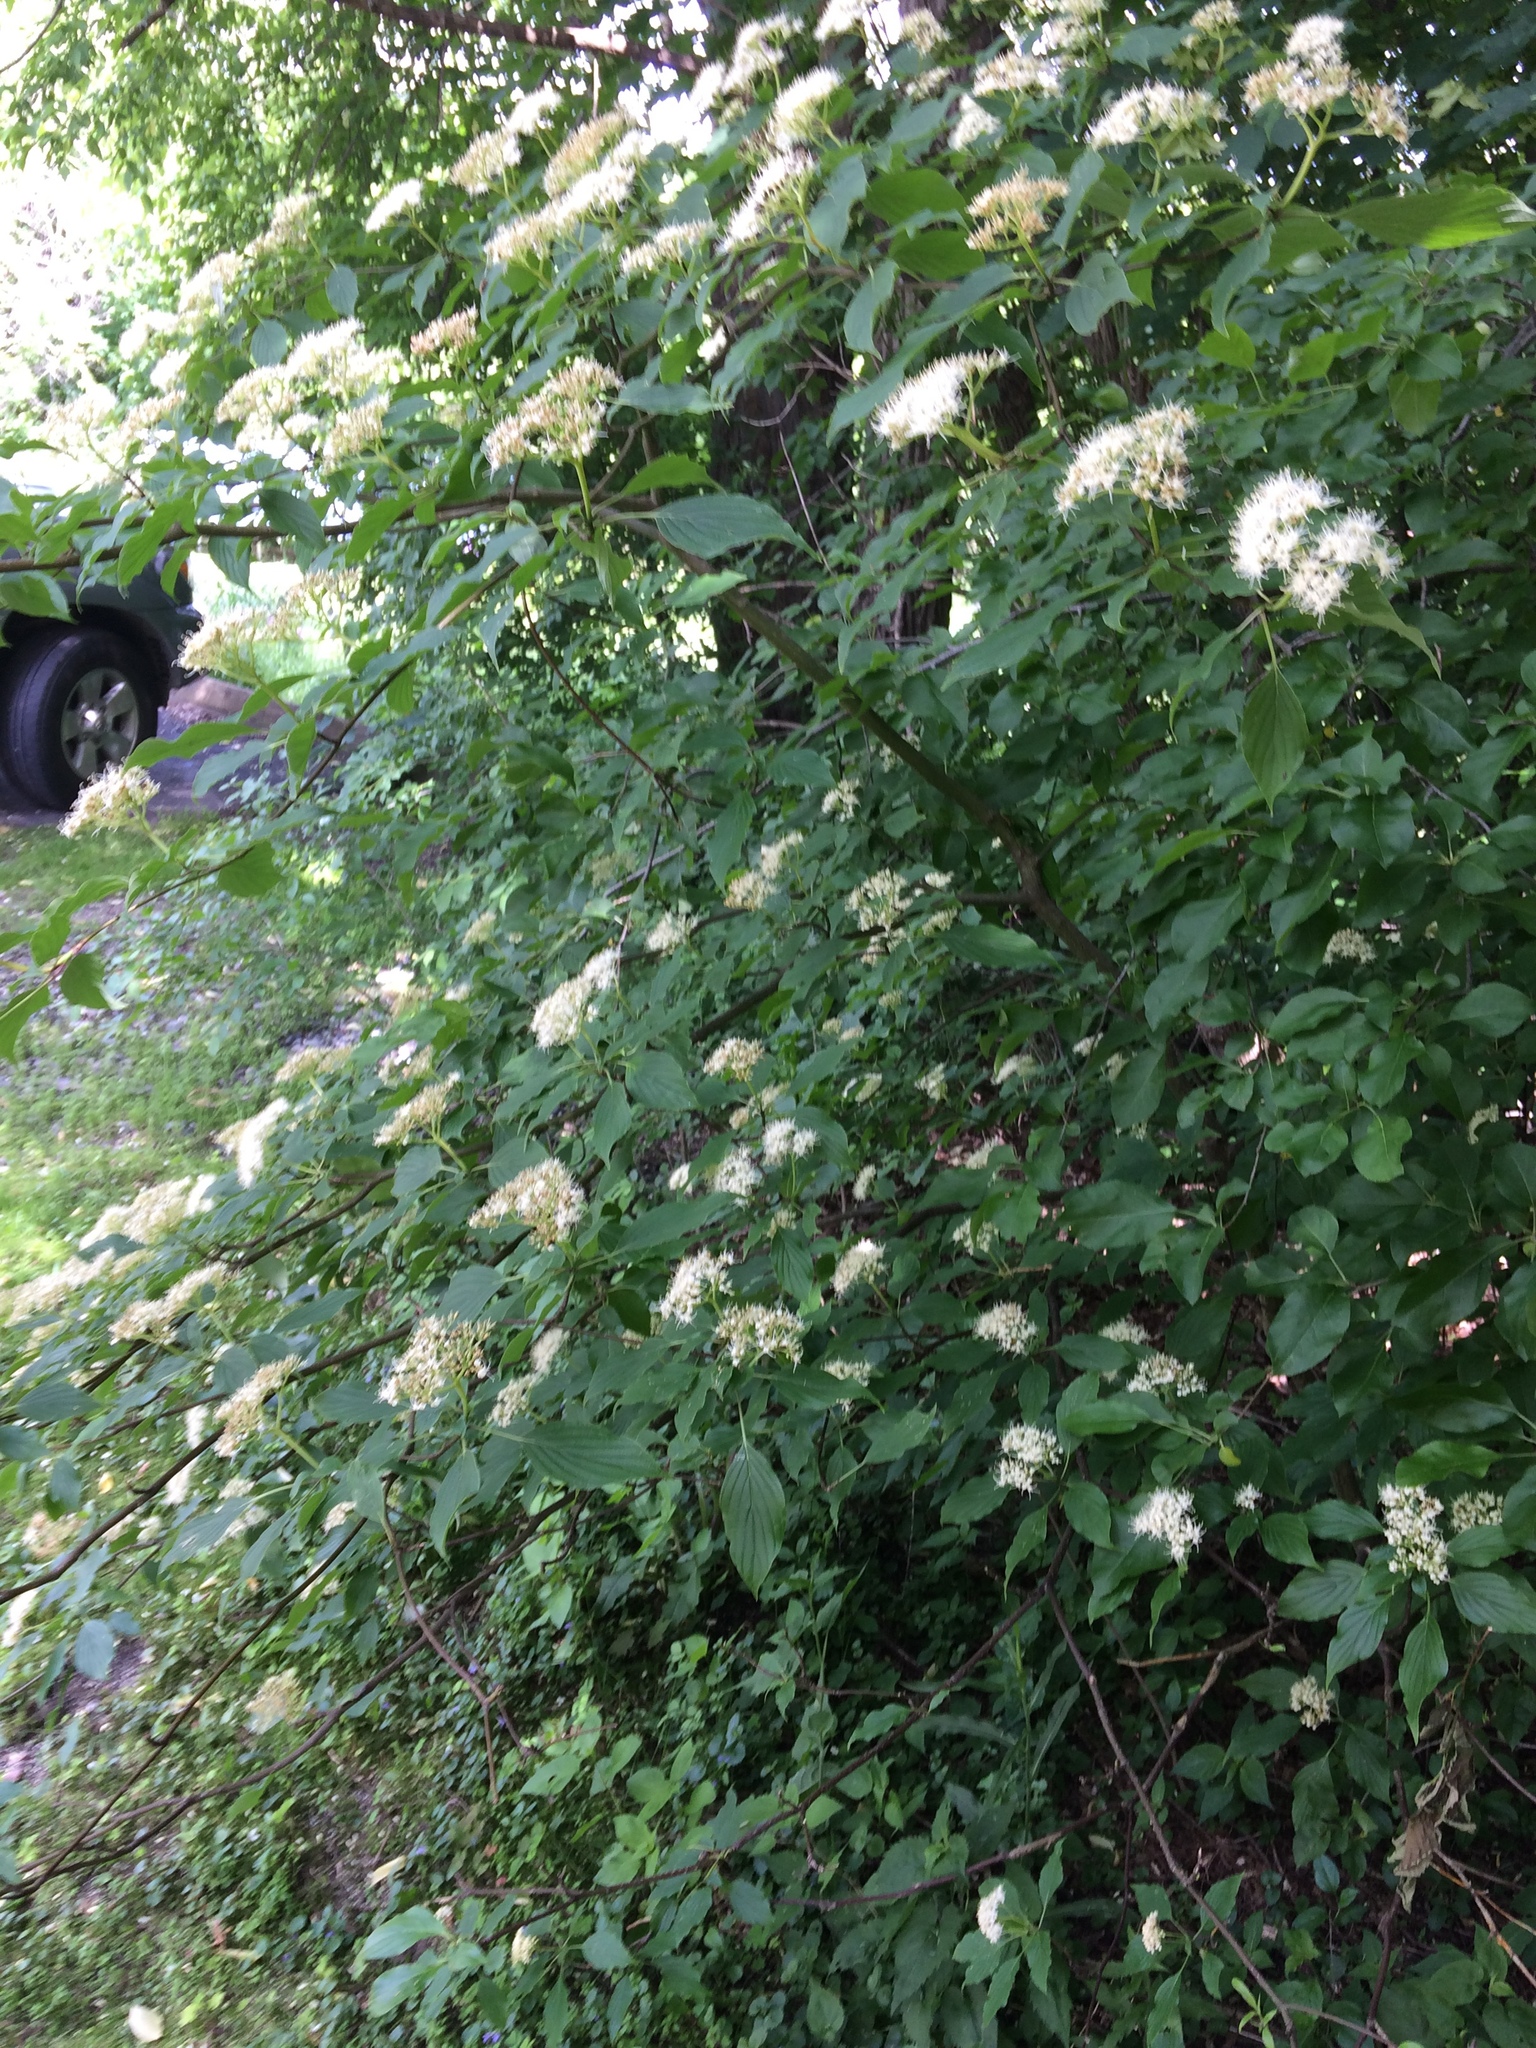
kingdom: Plantae
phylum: Tracheophyta
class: Magnoliopsida
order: Cornales
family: Cornaceae
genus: Cornus
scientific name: Cornus alternifolia
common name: Pagoda dogwood
